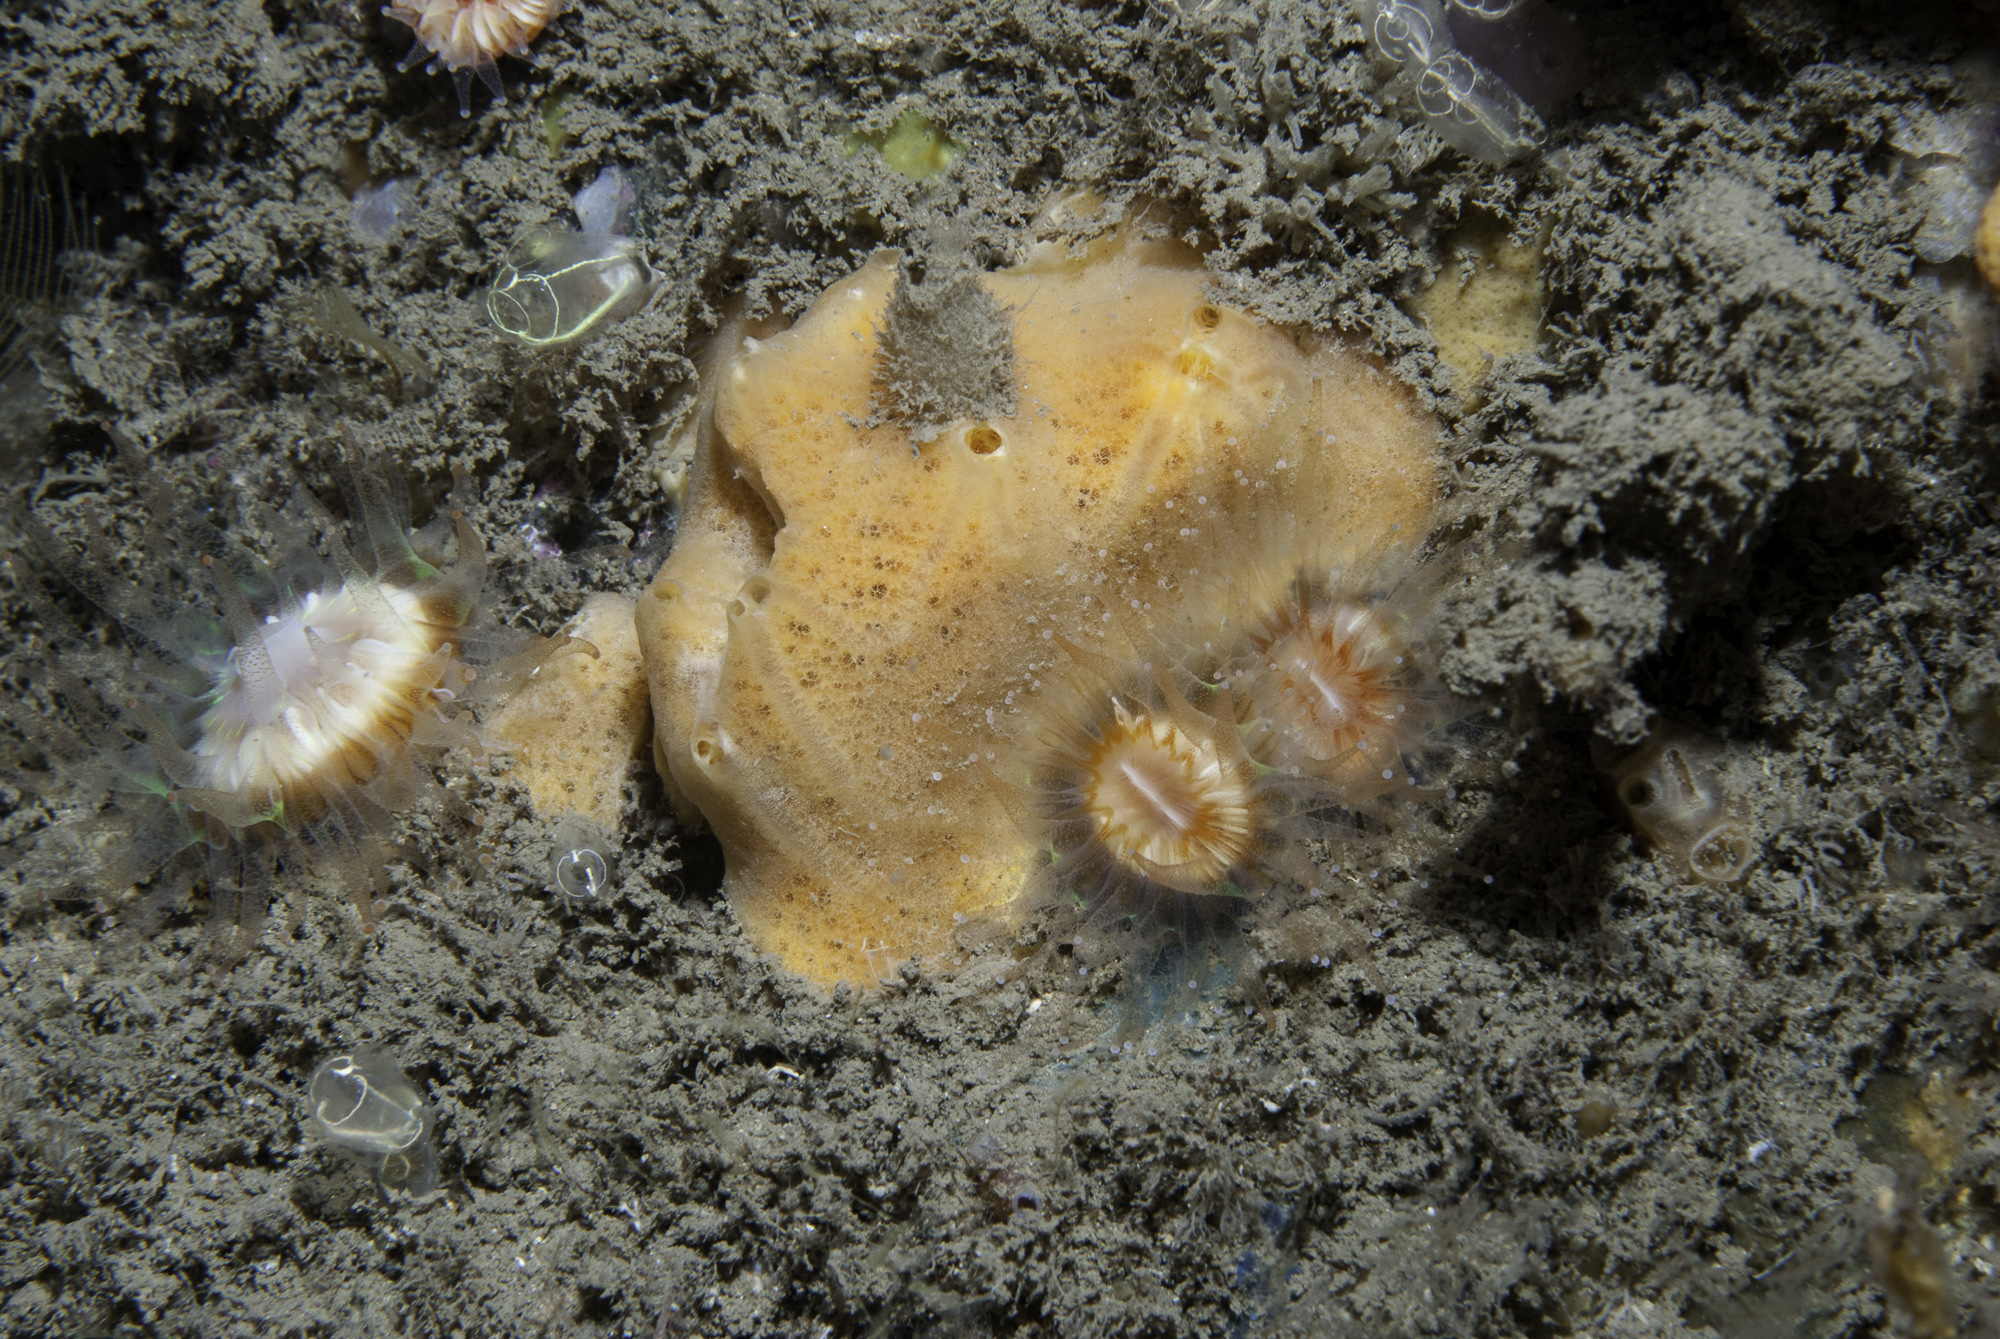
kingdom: Animalia
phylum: Porifera
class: Demospongiae
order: Poecilosclerida
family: Myxillidae
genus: Myxilla
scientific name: Myxilla fimbriata
